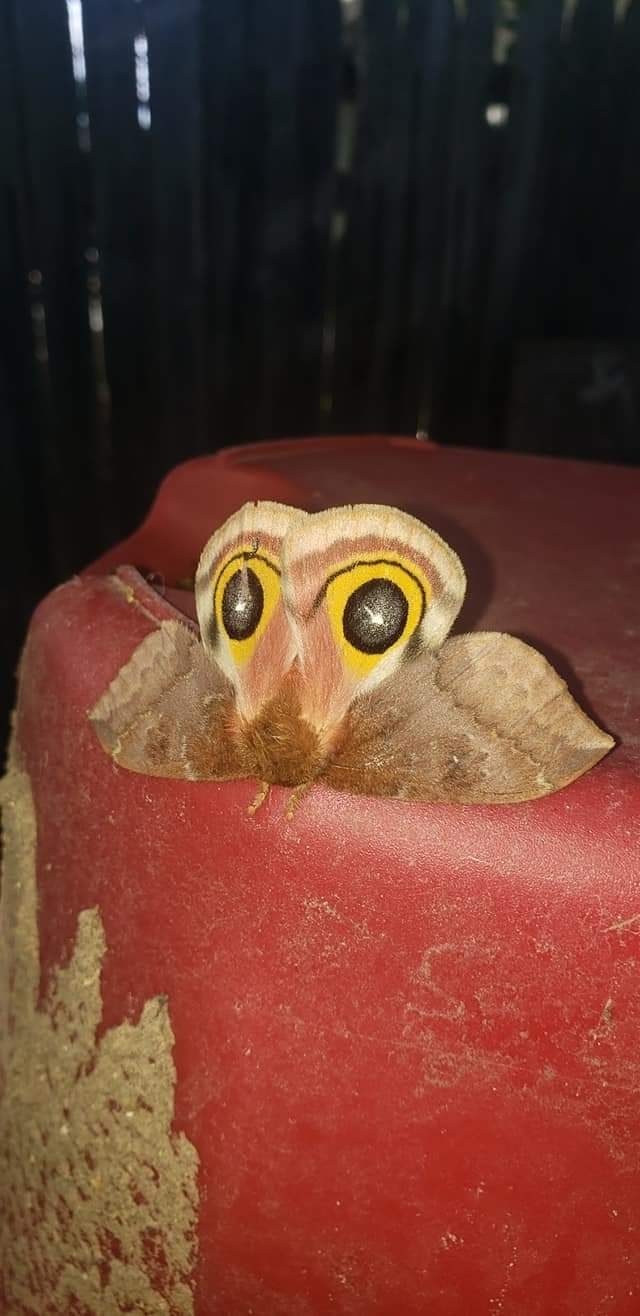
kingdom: Animalia
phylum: Arthropoda
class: Insecta
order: Lepidoptera
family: Saturniidae
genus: Automeris
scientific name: Automeris io
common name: Io moth
